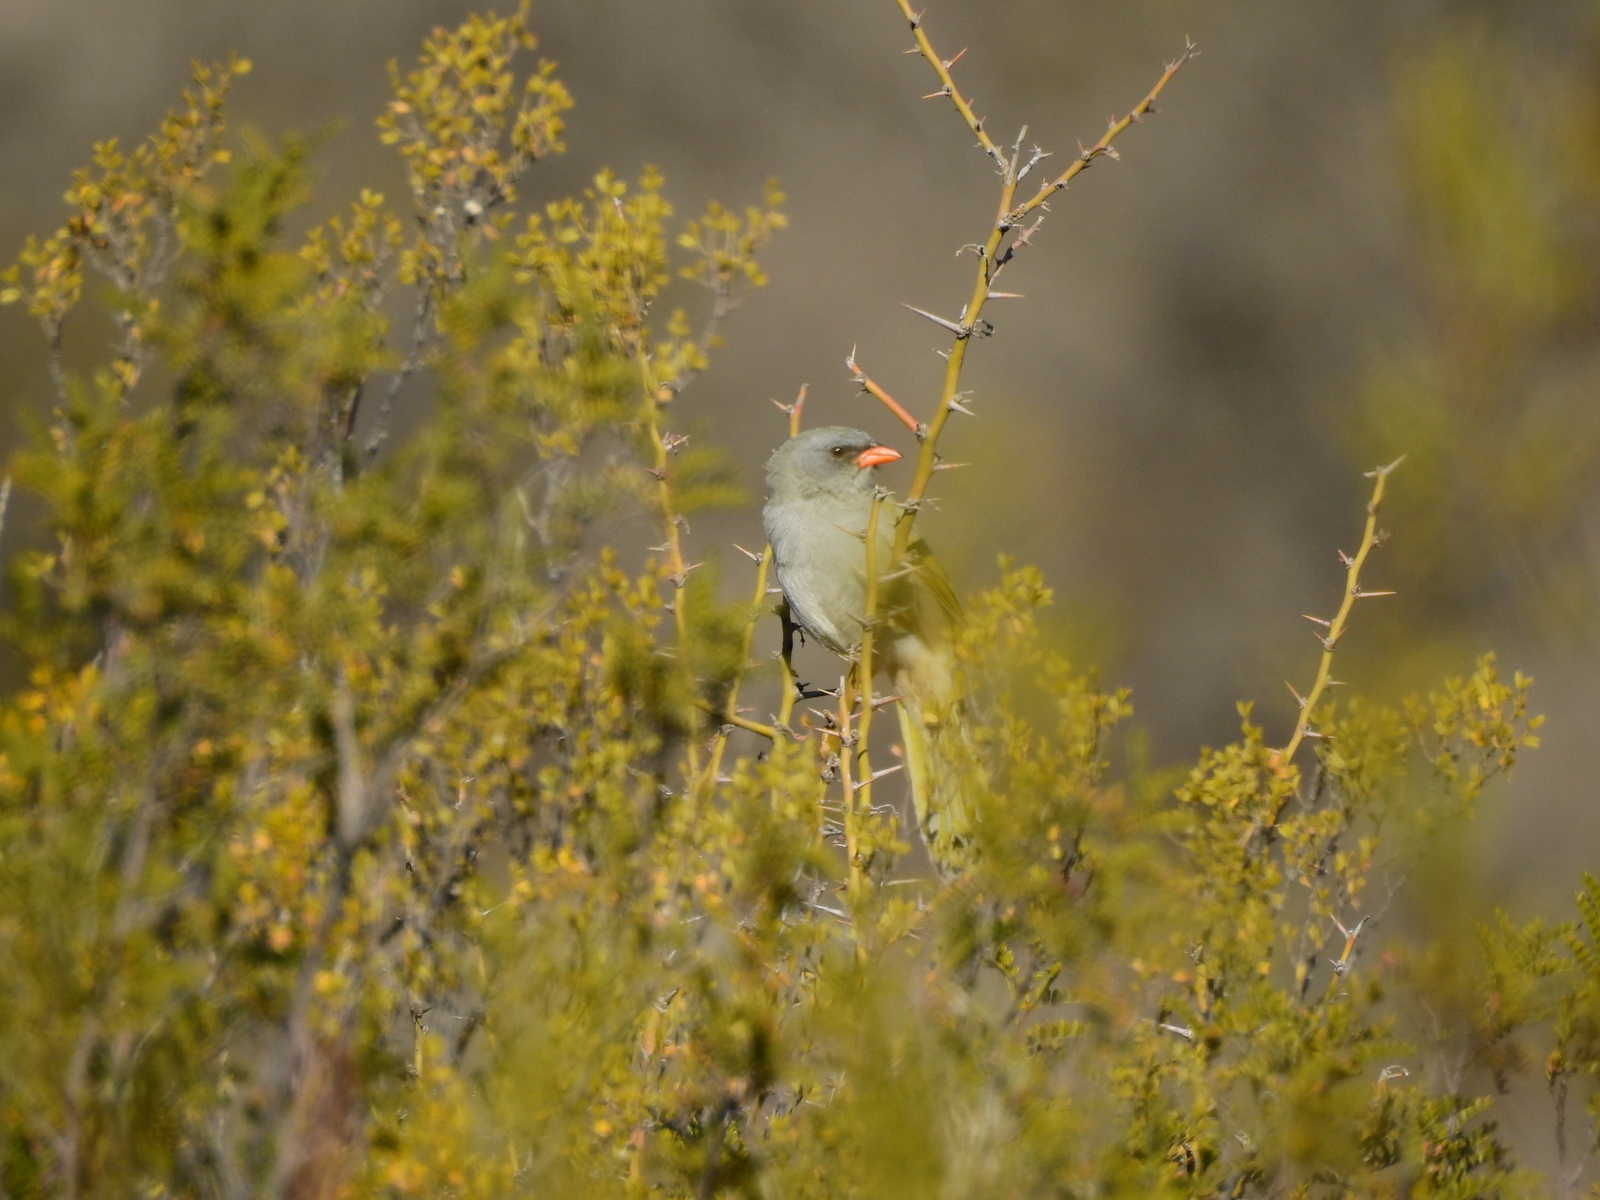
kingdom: Animalia
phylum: Chordata
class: Aves
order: Passeriformes
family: Thraupidae
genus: Embernagra
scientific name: Embernagra platensis
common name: Pampa finch
